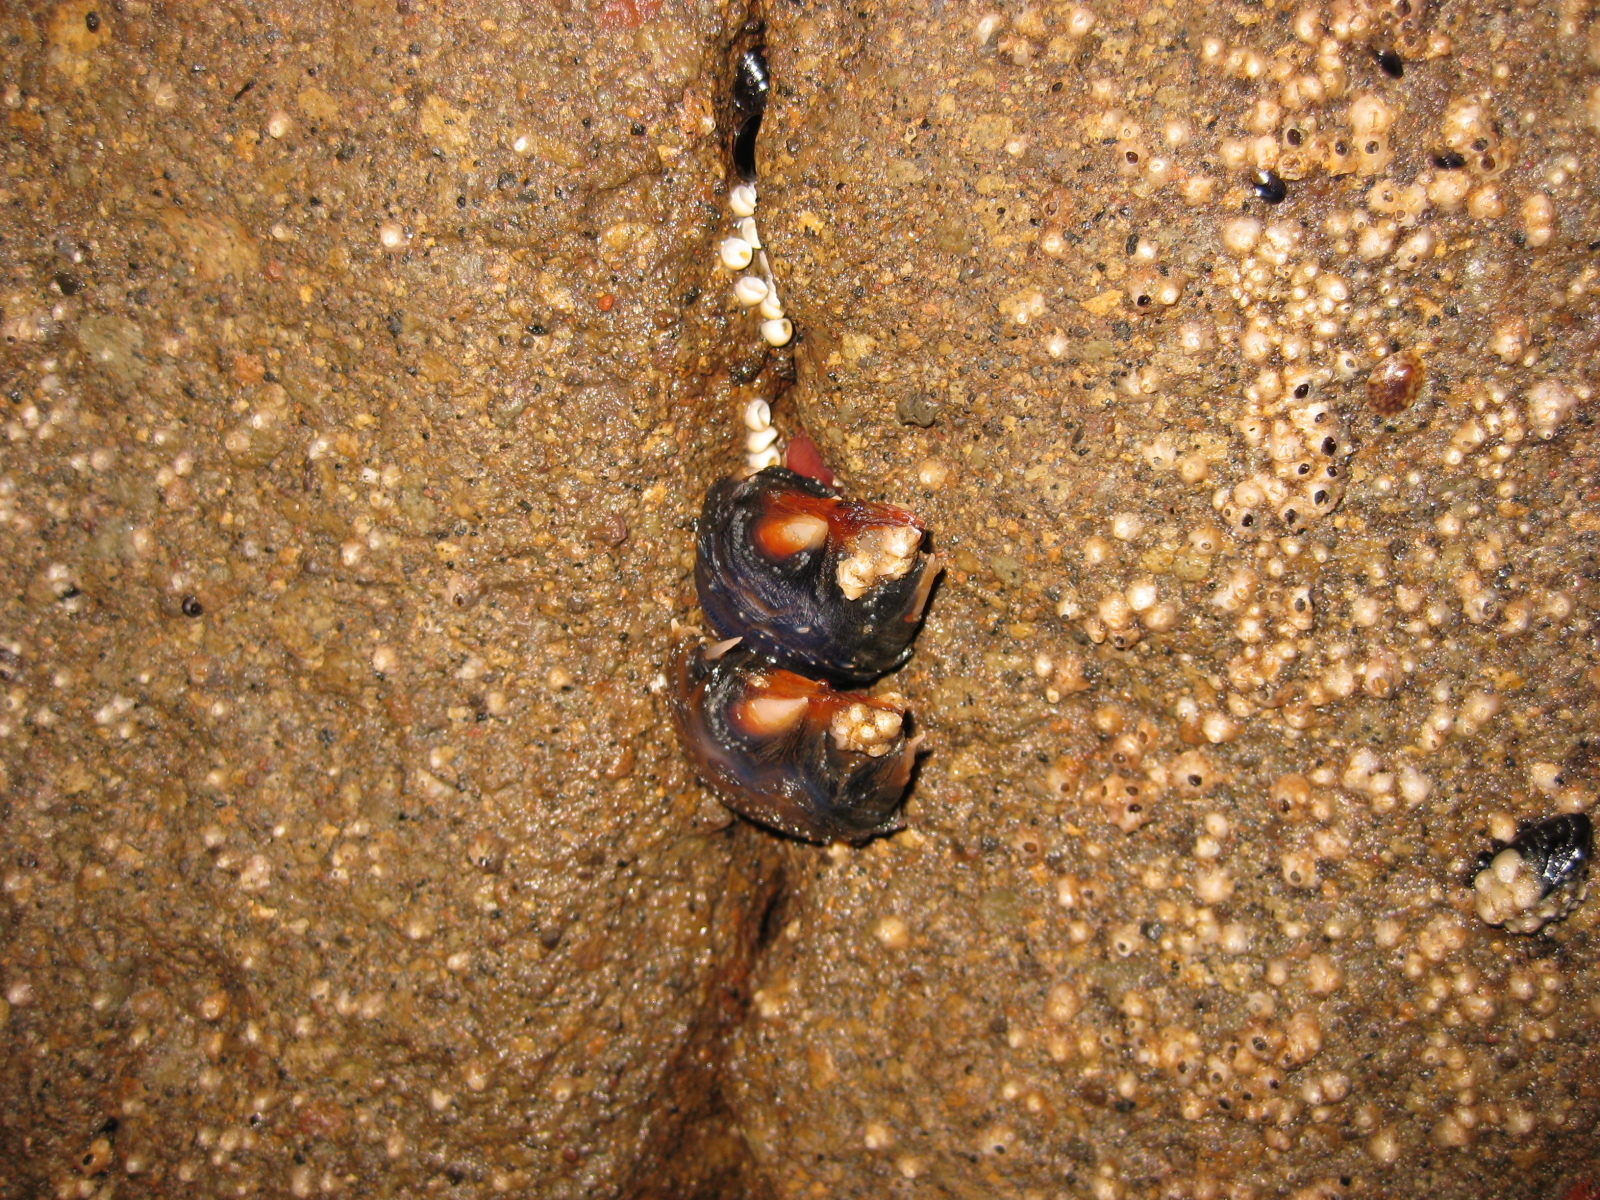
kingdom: Animalia
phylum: Arthropoda
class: Maxillopoda
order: Pedunculata
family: Calanticidae
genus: Calantica
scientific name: Calantica spinosa
